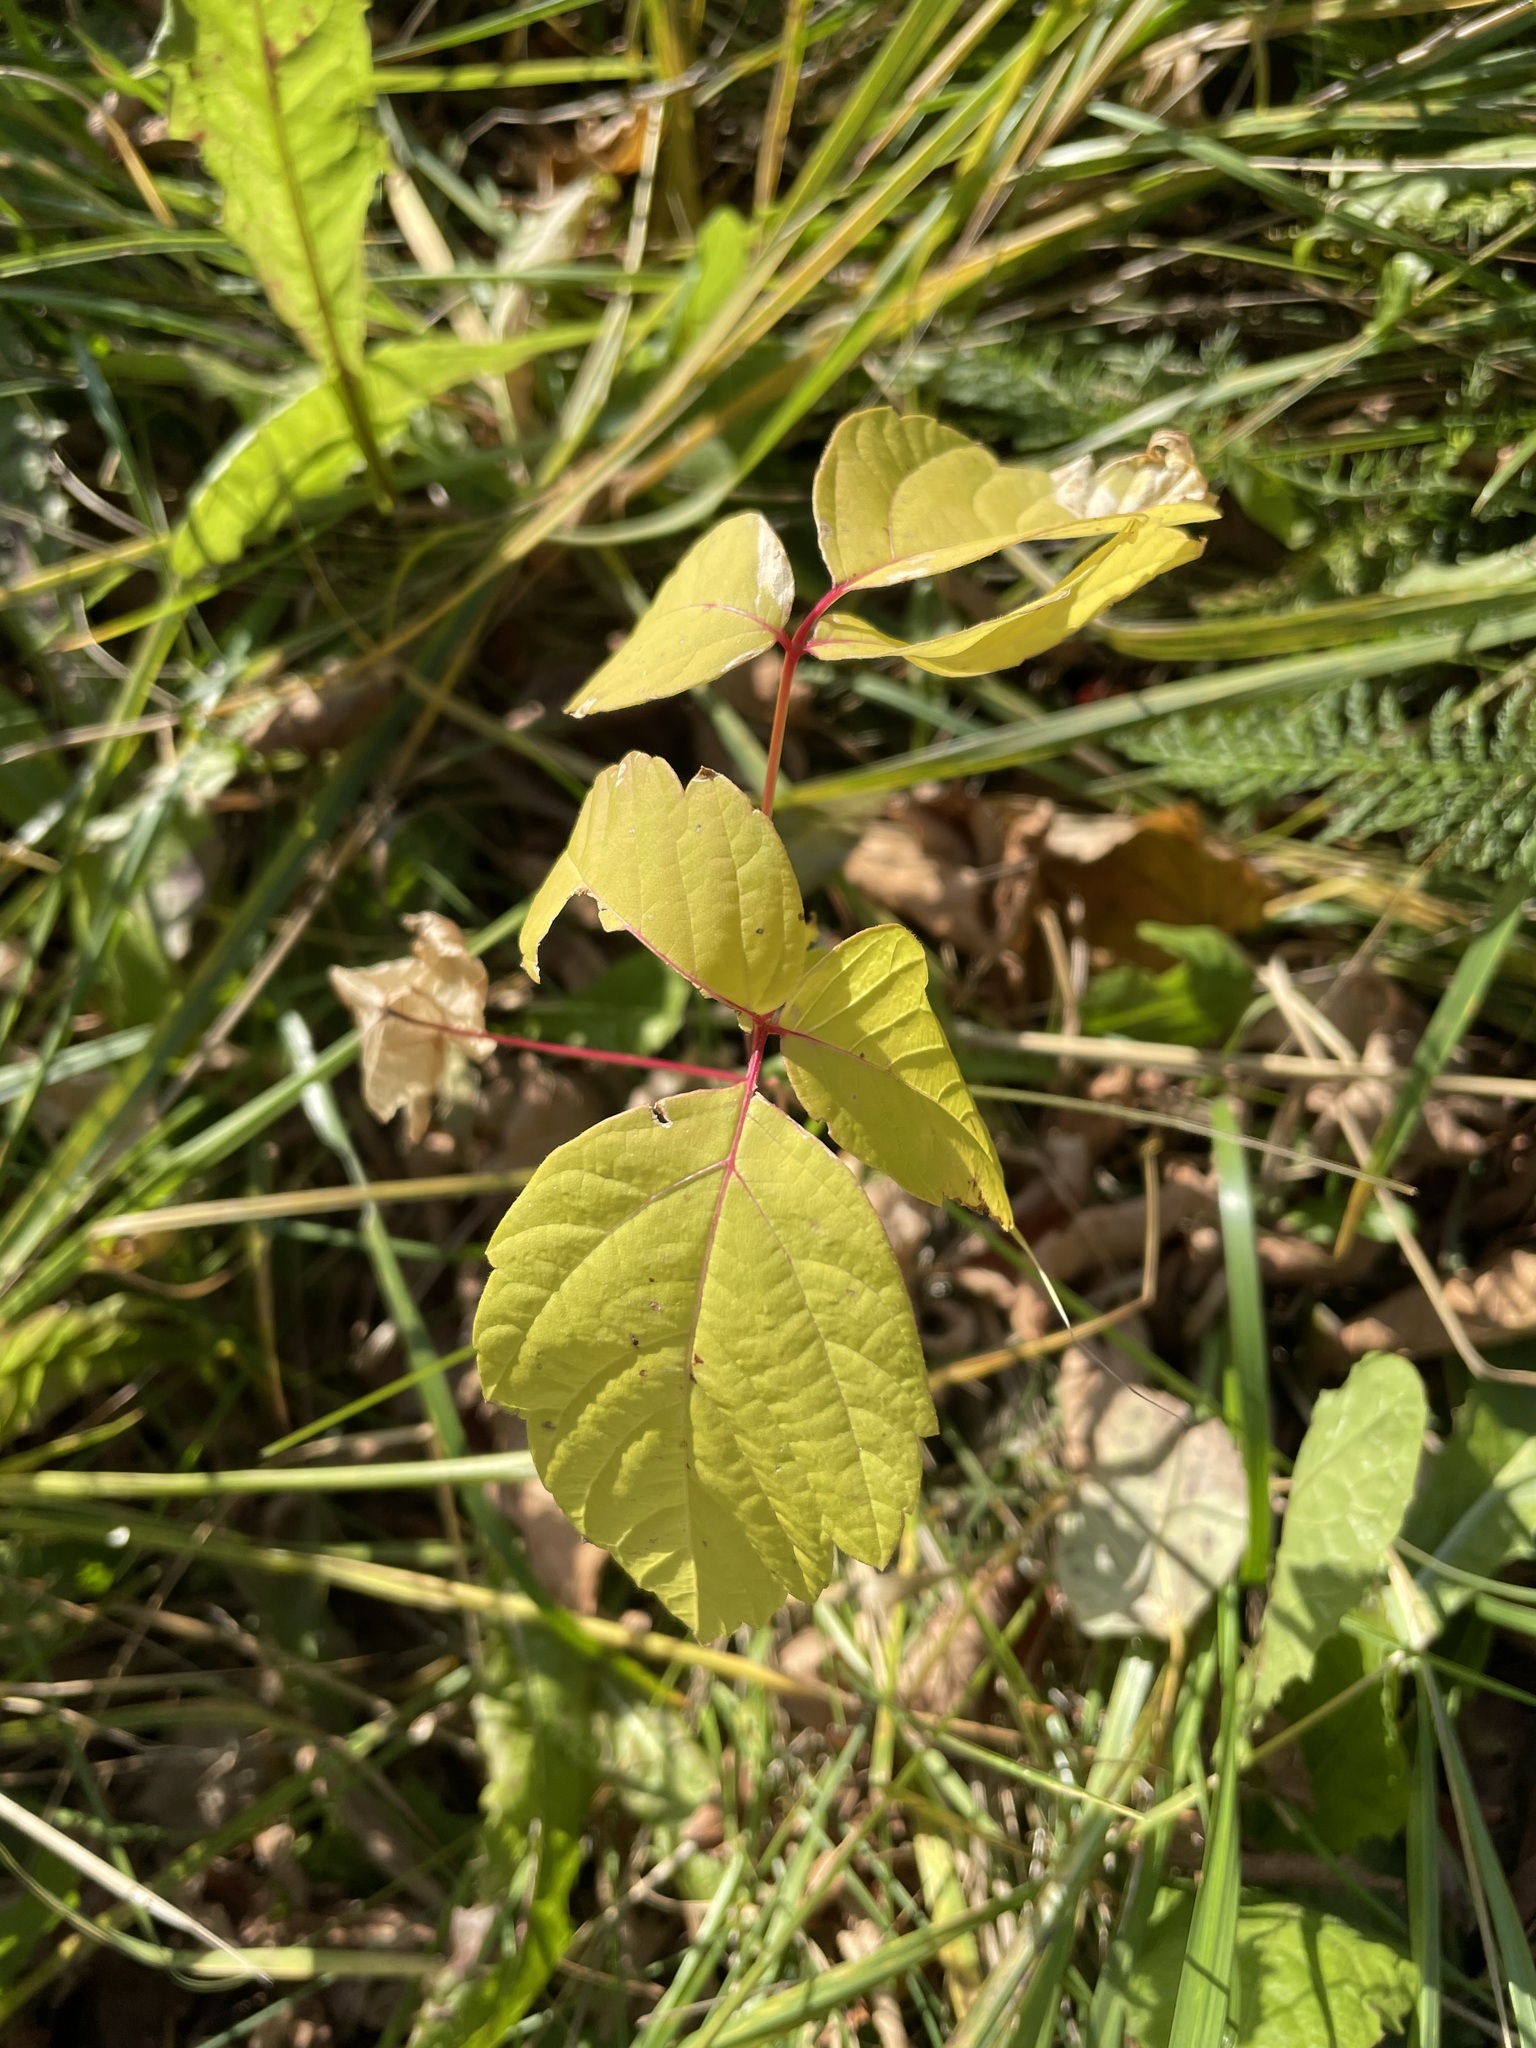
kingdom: Plantae
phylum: Tracheophyta
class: Magnoliopsida
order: Sapindales
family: Sapindaceae
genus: Acer
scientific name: Acer negundo
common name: Ashleaf maple
